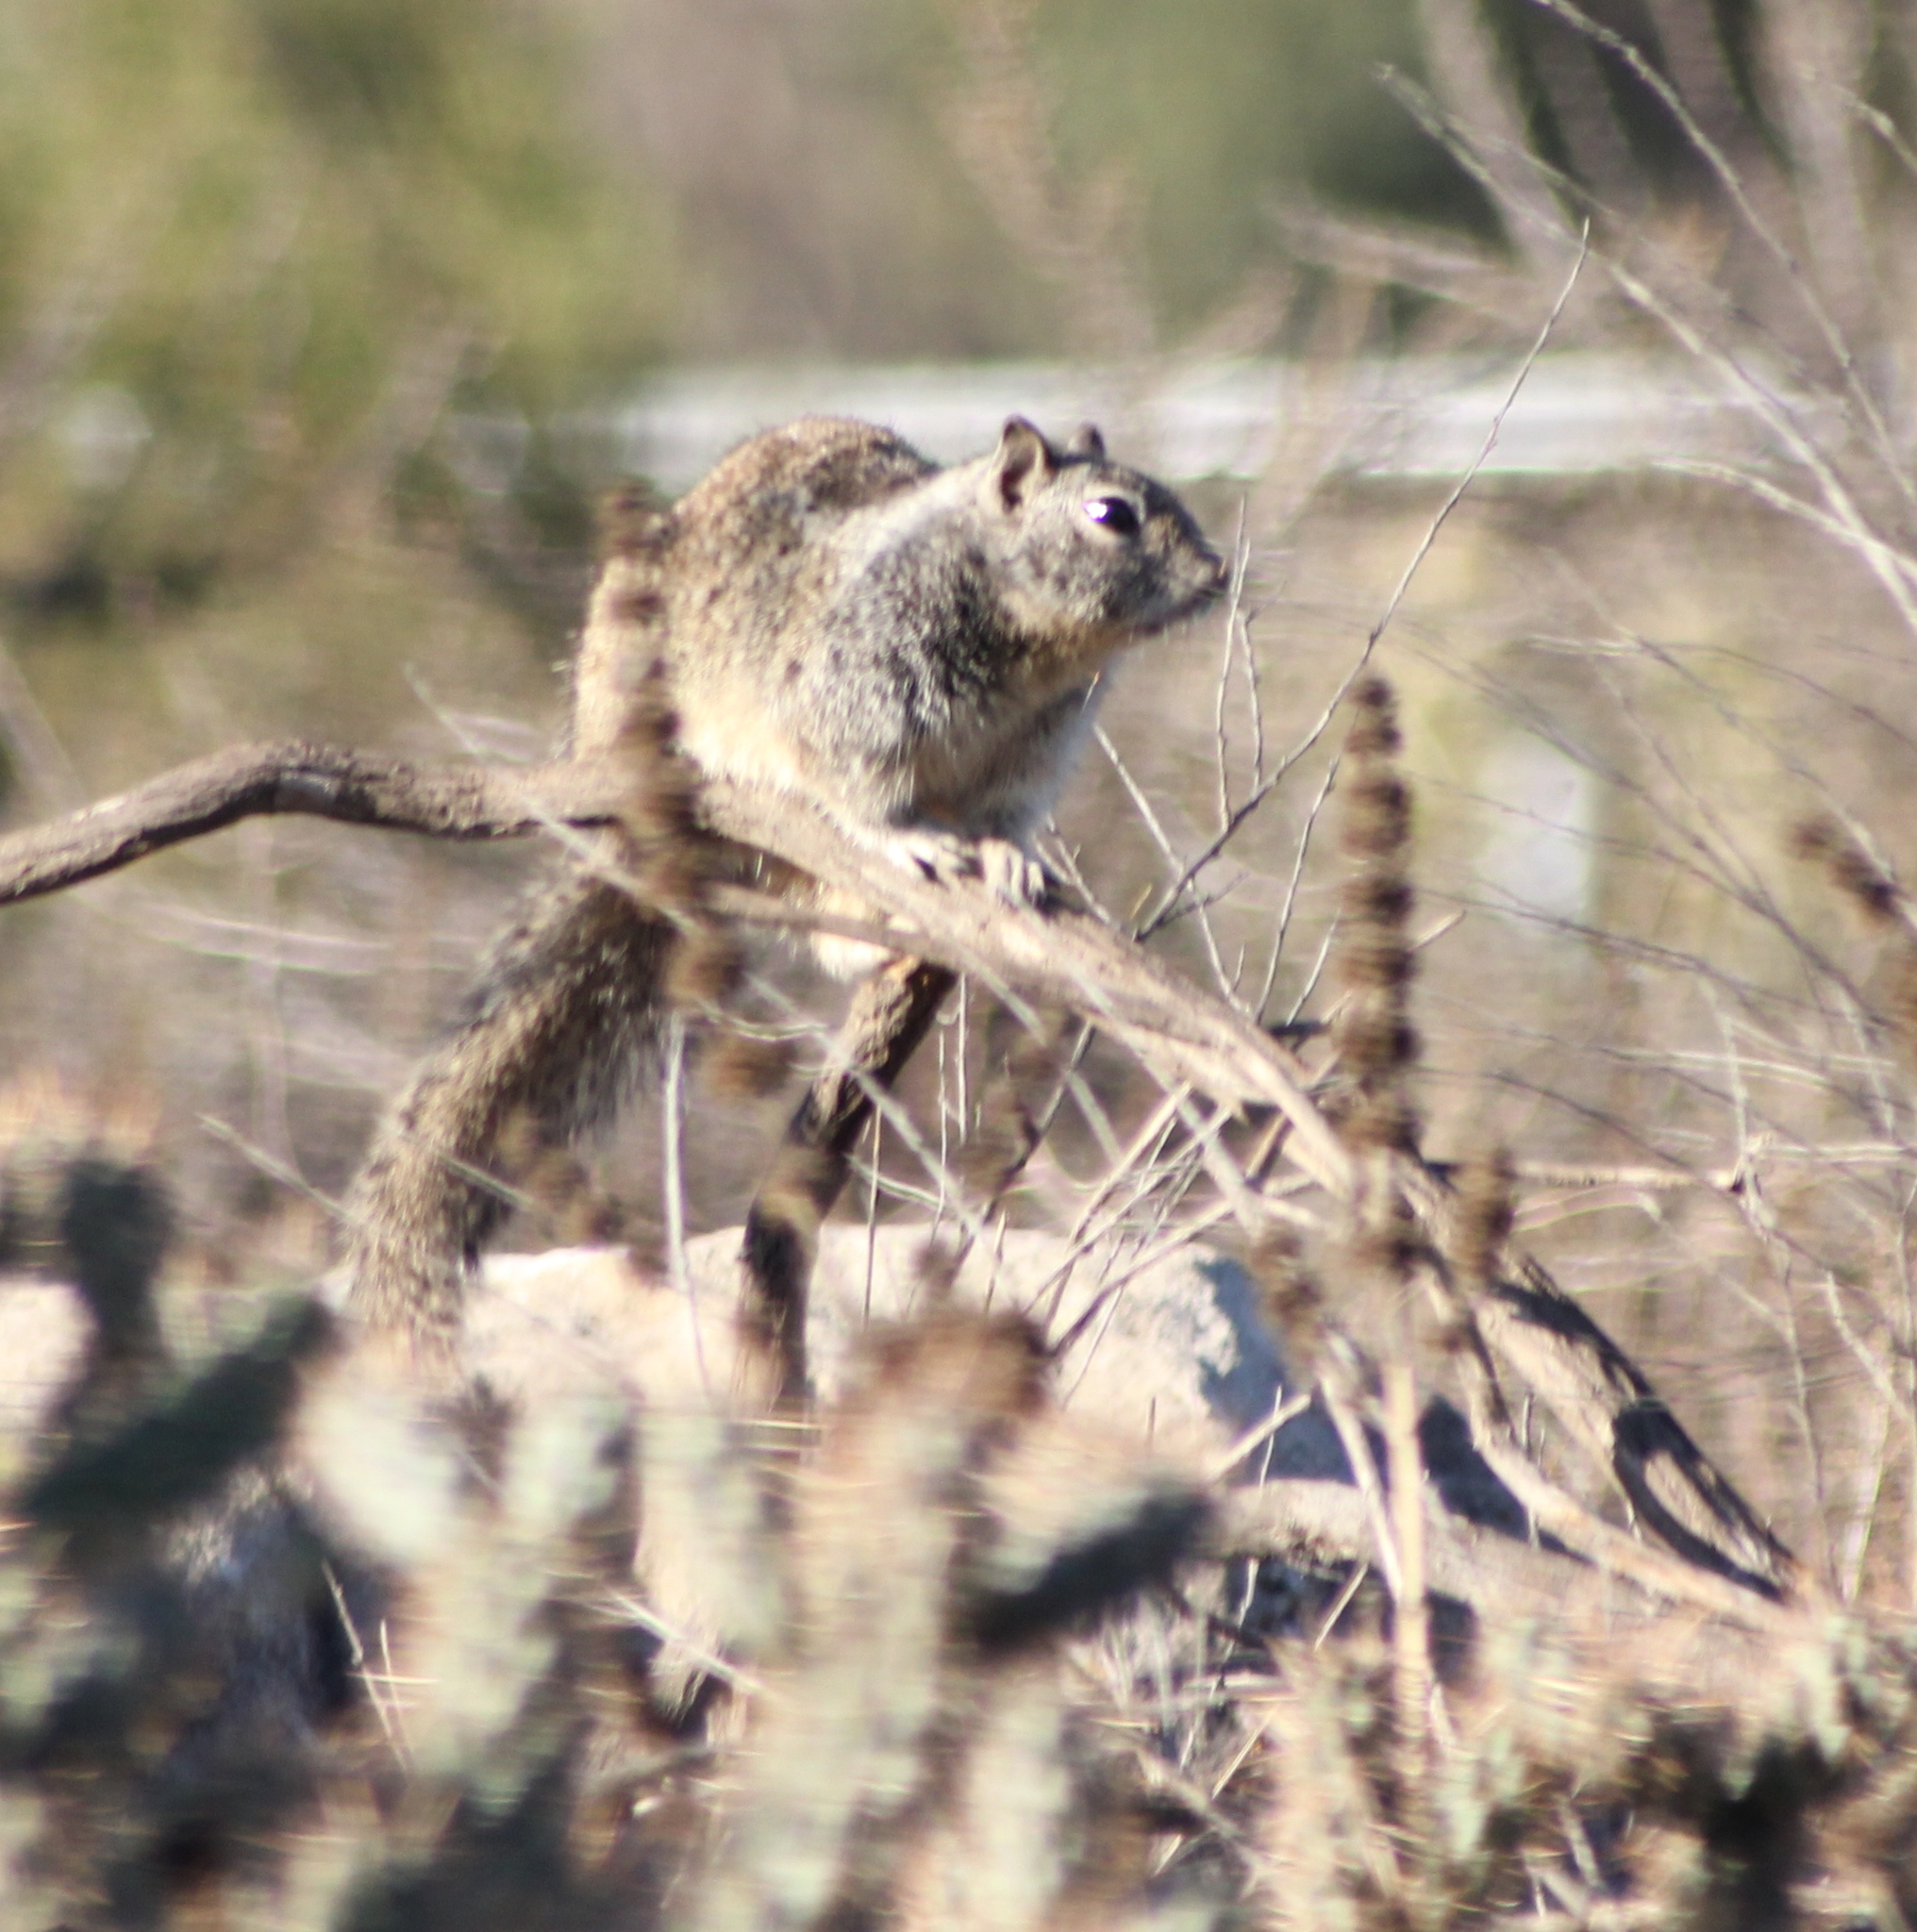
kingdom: Animalia
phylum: Chordata
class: Mammalia
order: Rodentia
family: Sciuridae
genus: Otospermophilus
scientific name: Otospermophilus beecheyi
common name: California ground squirrel
